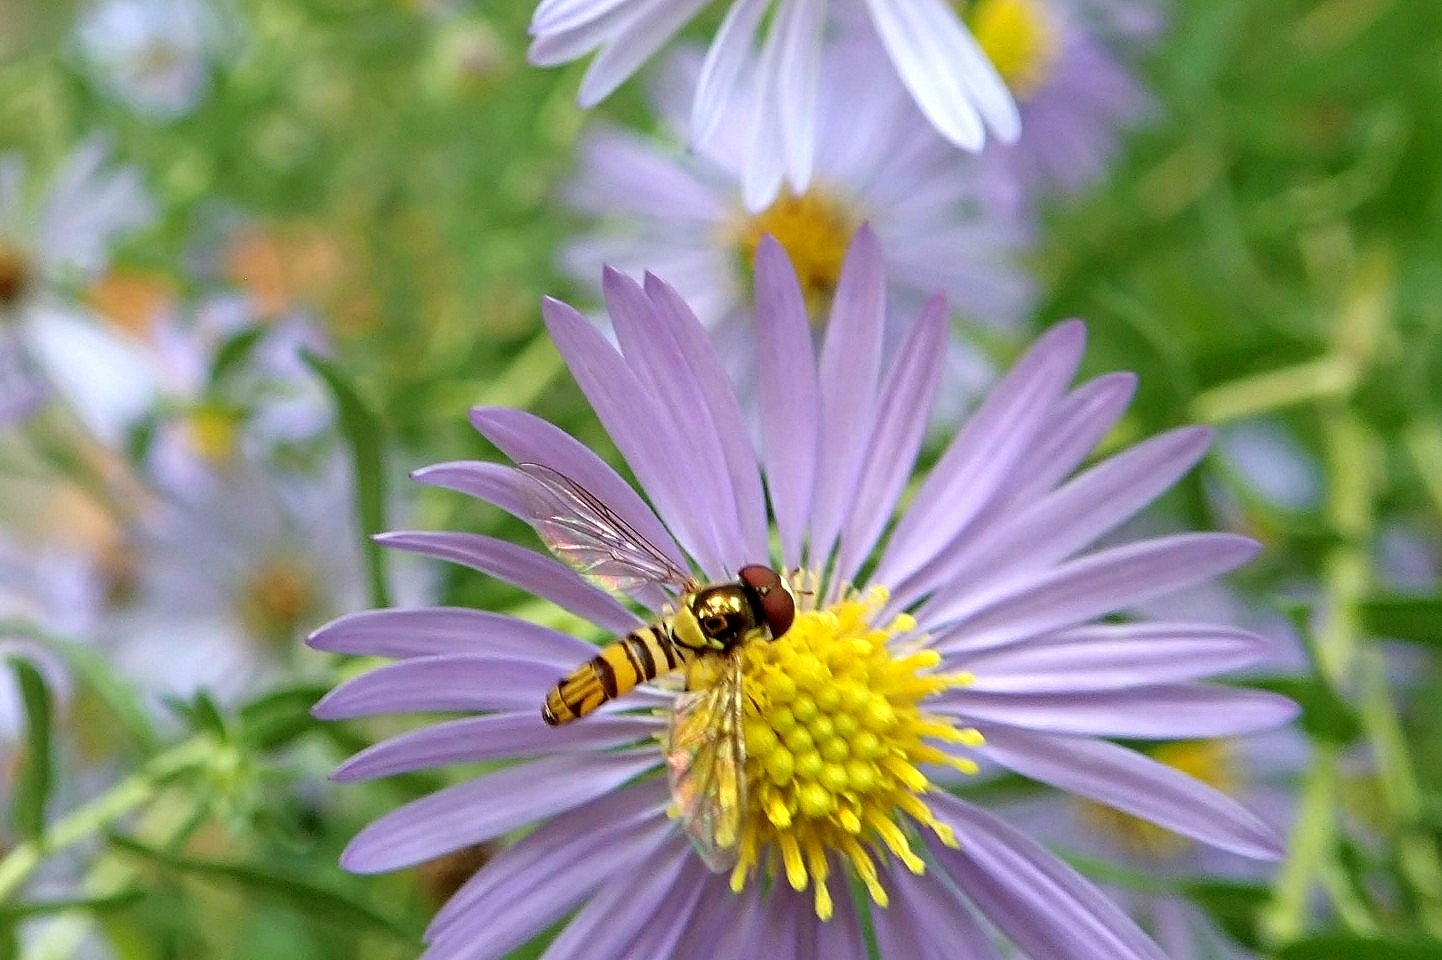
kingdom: Animalia
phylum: Arthropoda
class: Insecta
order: Diptera
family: Syrphidae
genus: Allograpta
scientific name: Allograpta obliqua
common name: Common oblique syrphid
